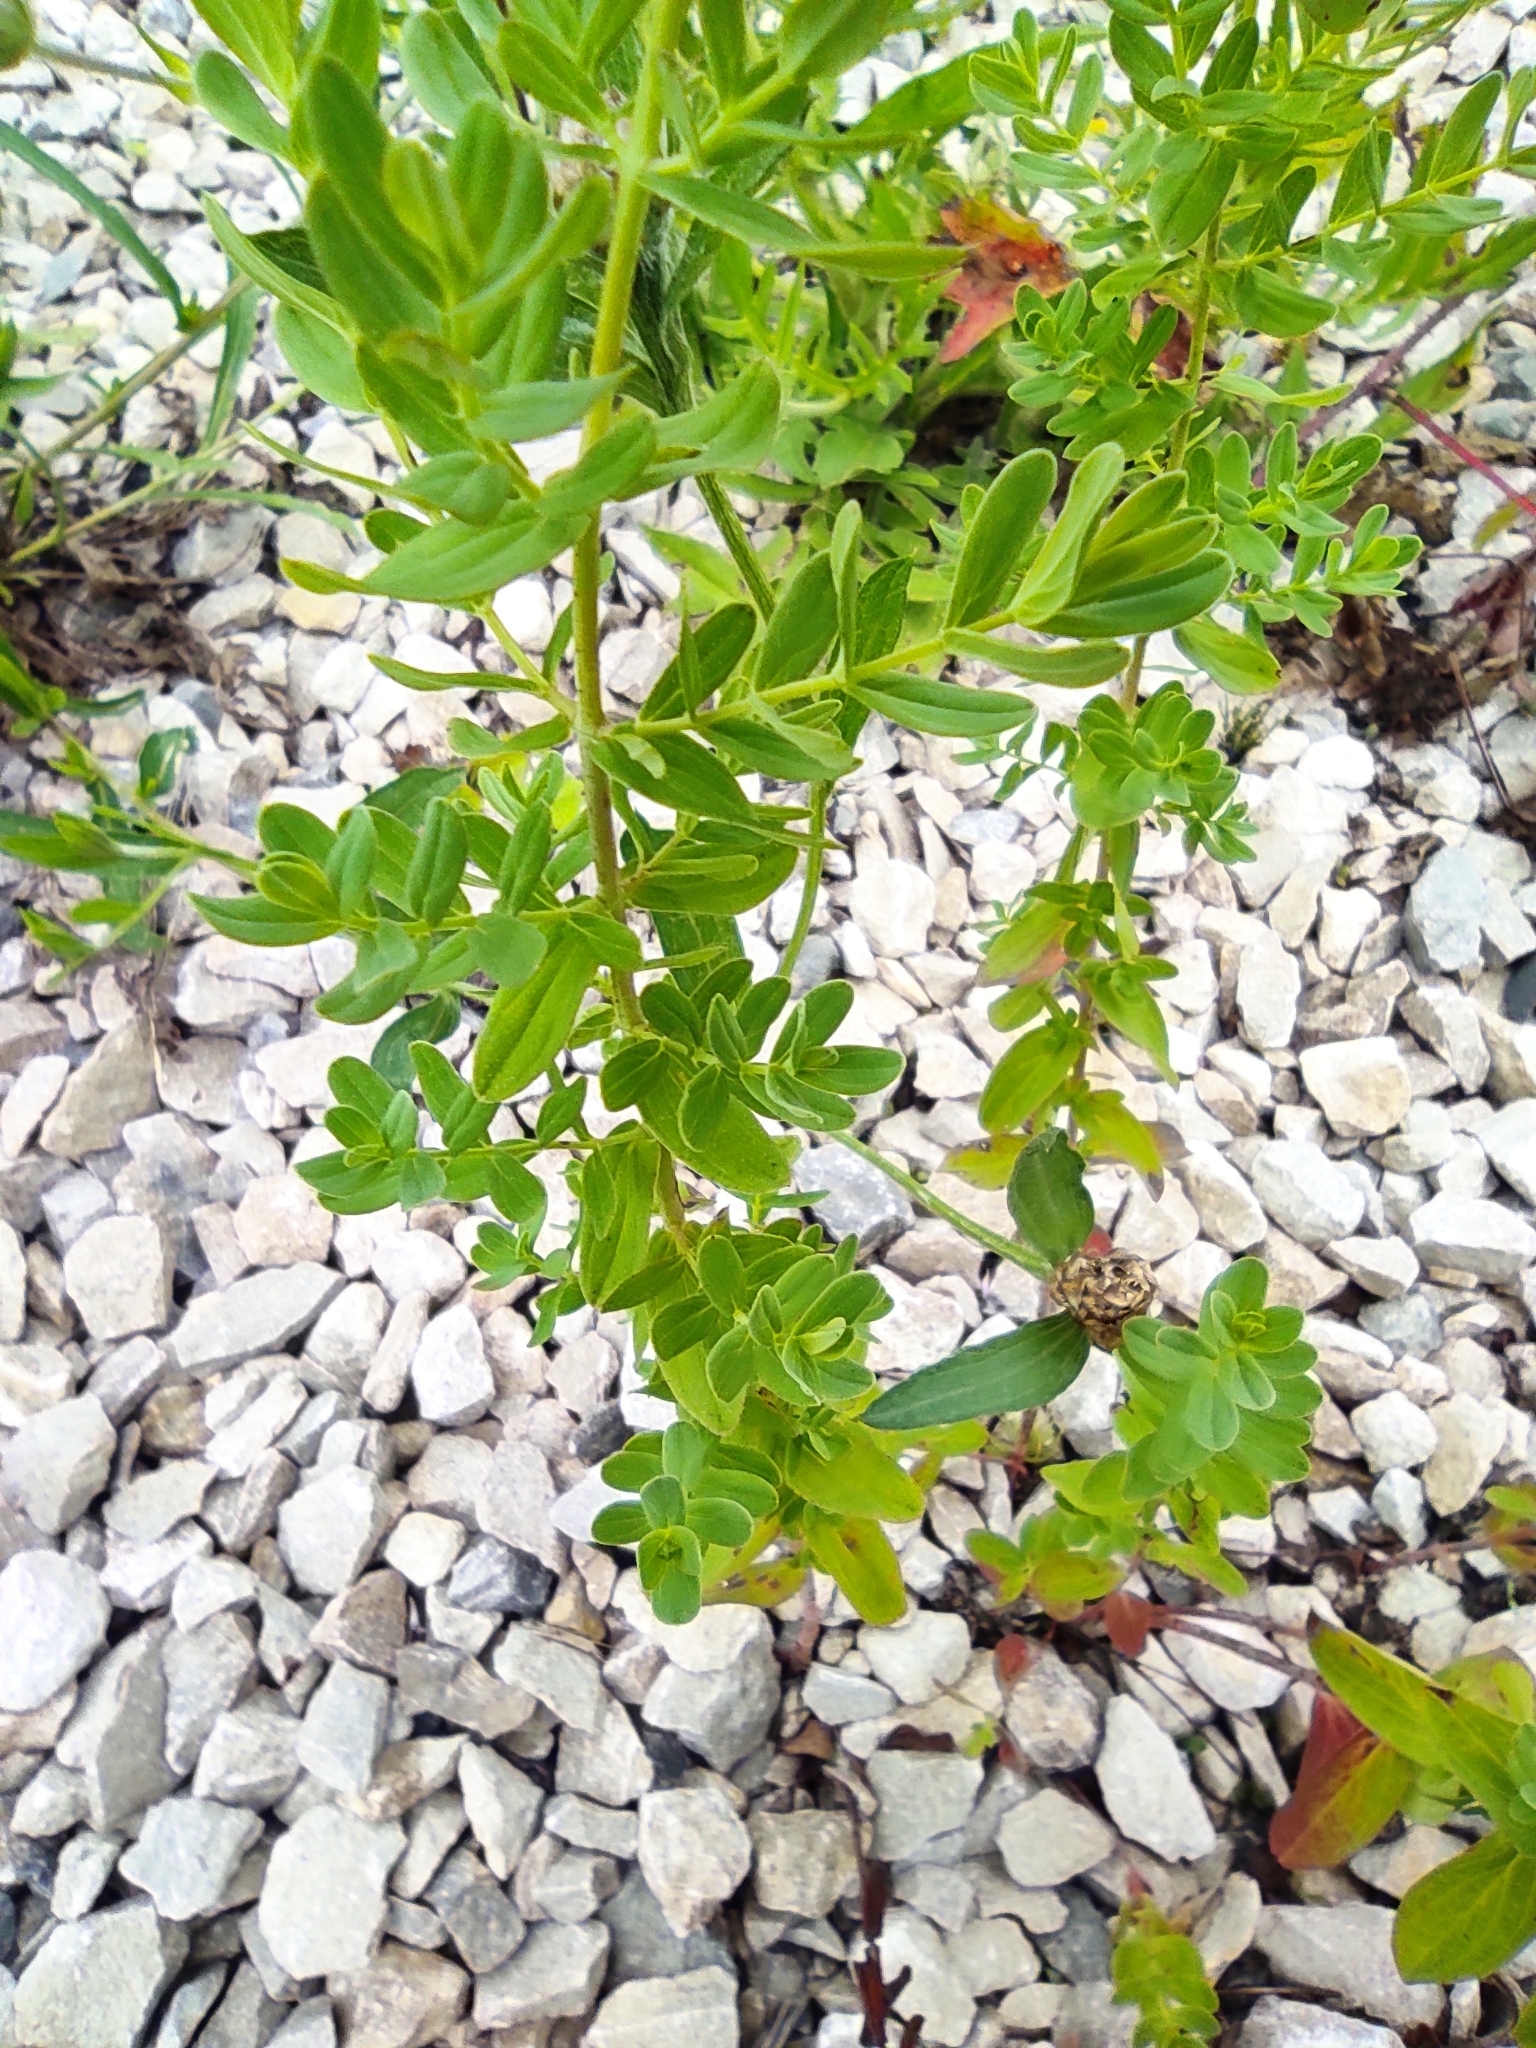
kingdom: Plantae
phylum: Tracheophyta
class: Magnoliopsida
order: Malpighiales
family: Hypericaceae
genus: Hypericum
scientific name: Hypericum perforatum
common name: Common st. johnswort
